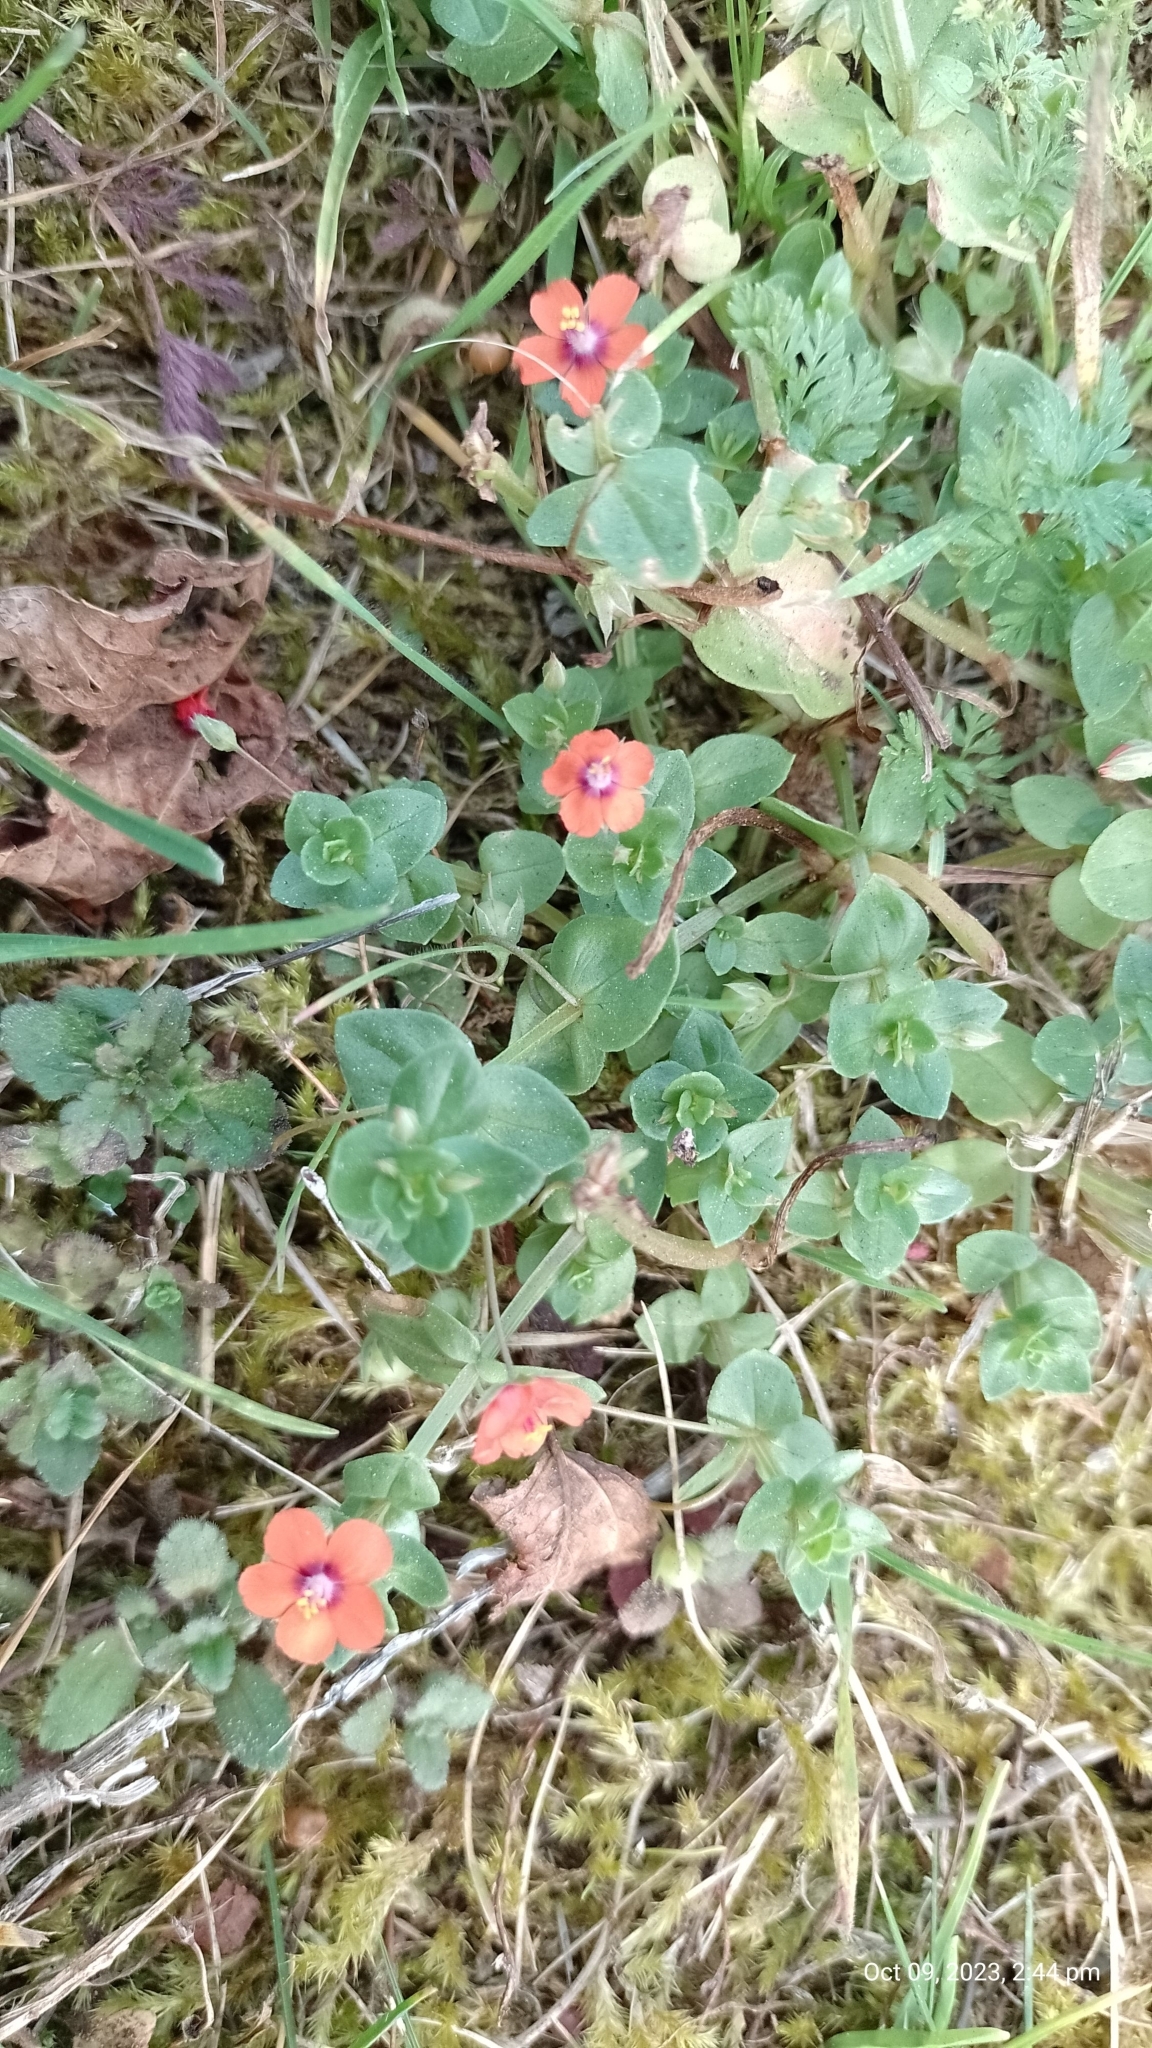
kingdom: Plantae
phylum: Tracheophyta
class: Magnoliopsida
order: Ericales
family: Primulaceae
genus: Lysimachia
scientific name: Lysimachia arvensis
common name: Scarlet pimpernel
